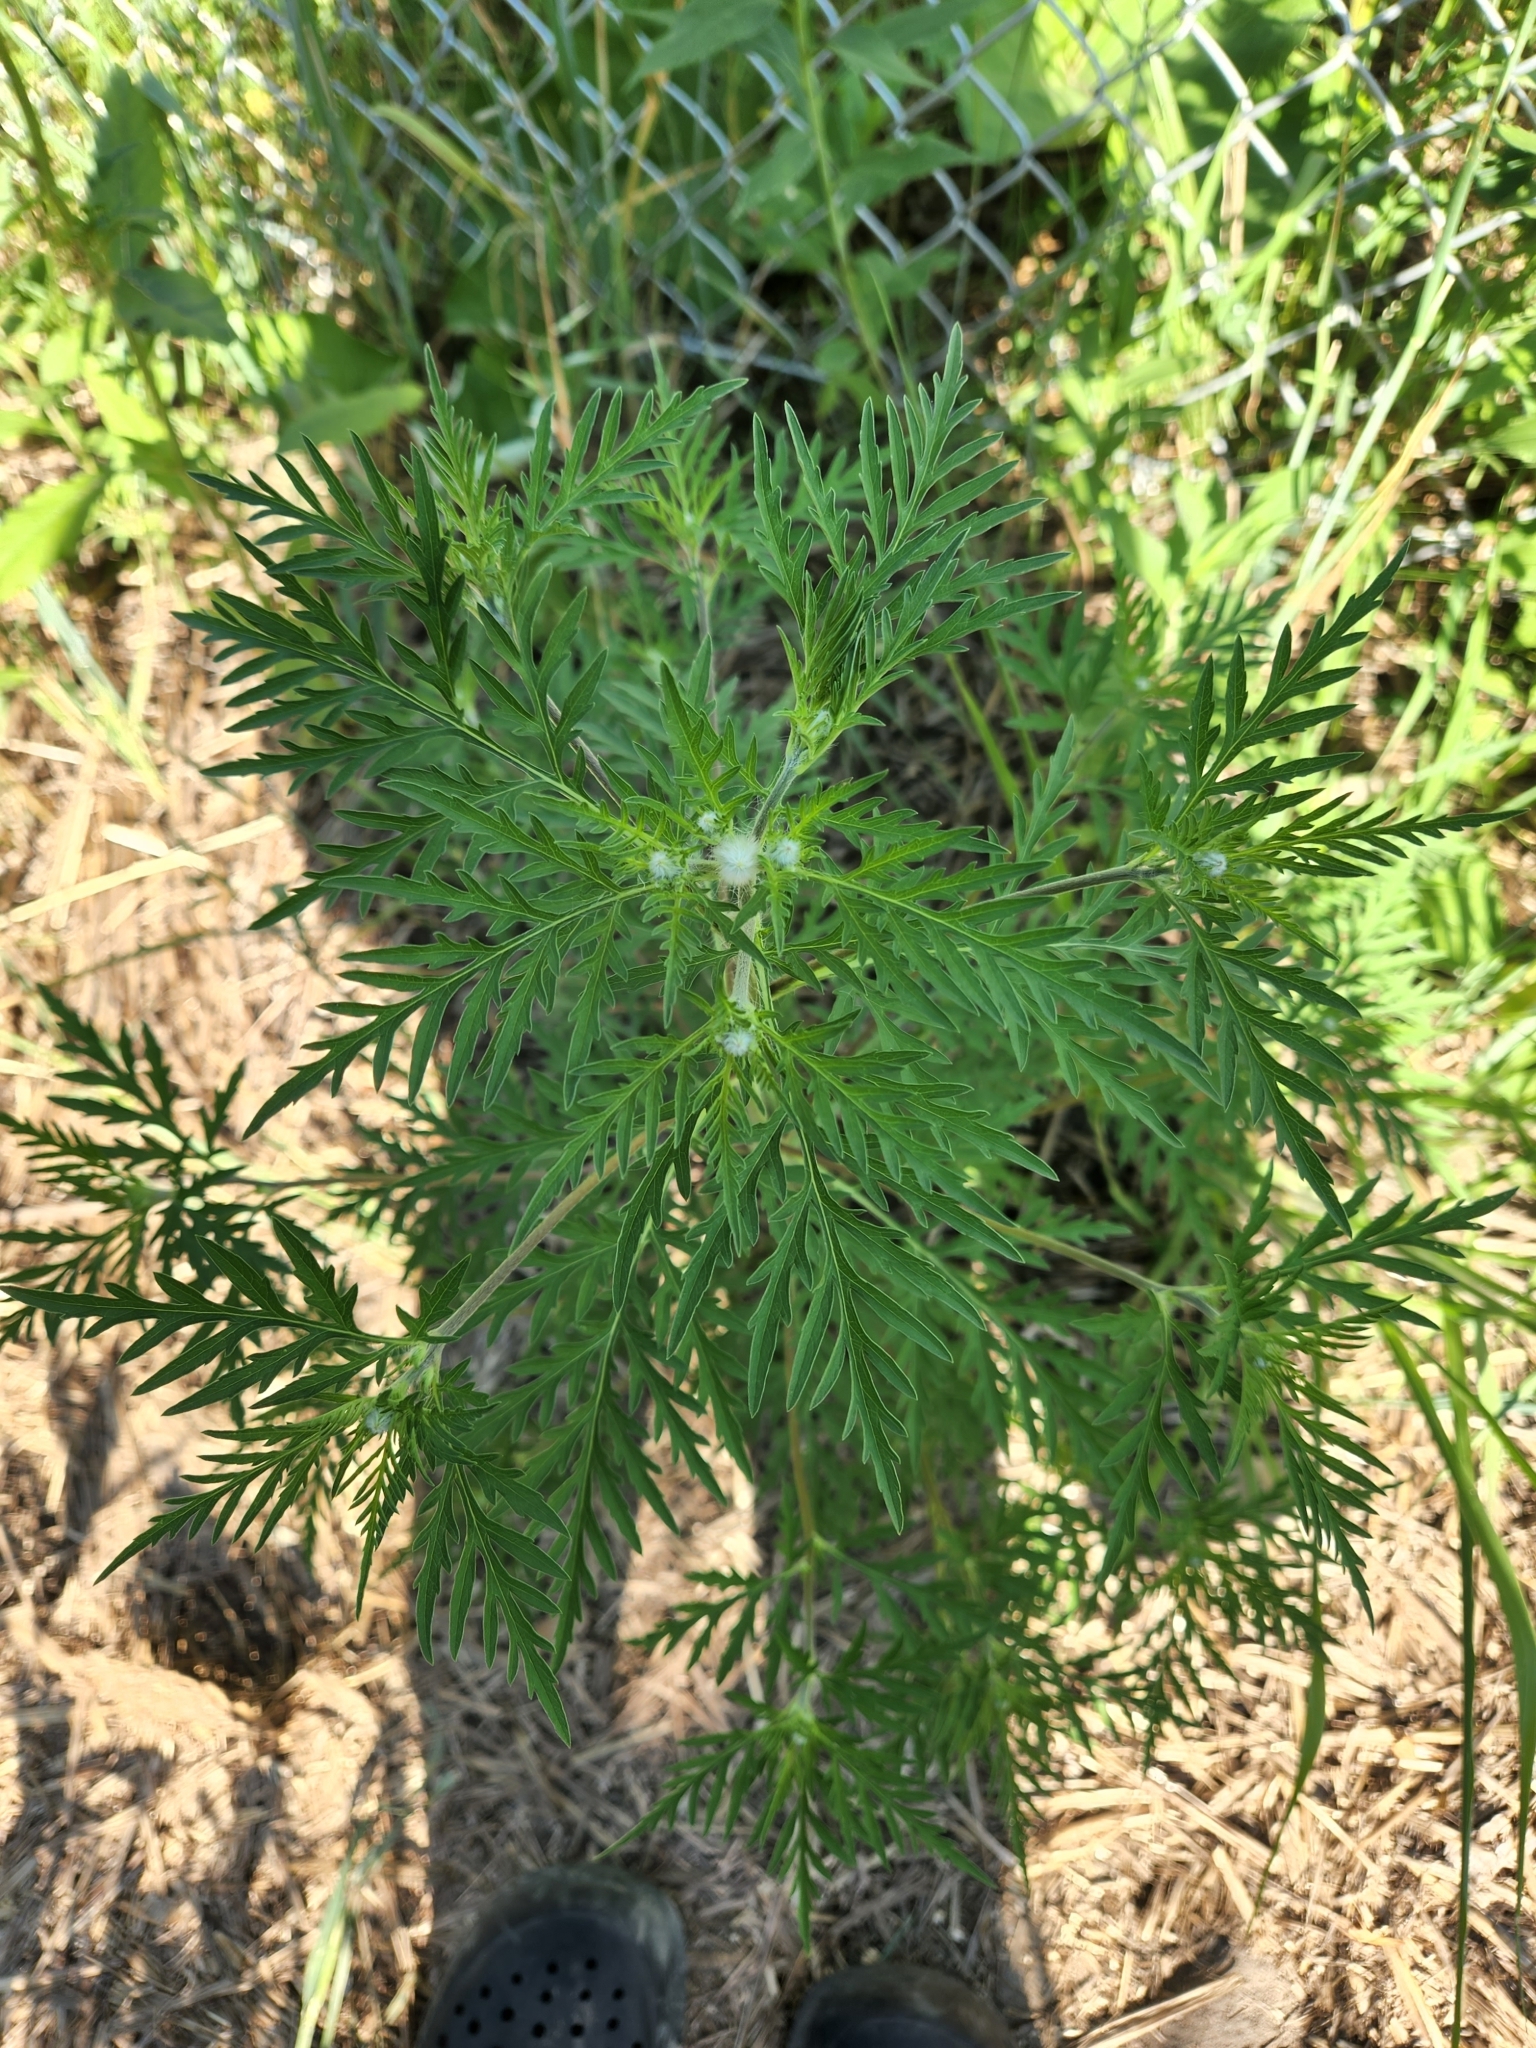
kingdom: Plantae
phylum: Tracheophyta
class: Magnoliopsida
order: Asterales
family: Asteraceae
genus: Ambrosia
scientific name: Ambrosia artemisiifolia
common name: Annual ragweed
